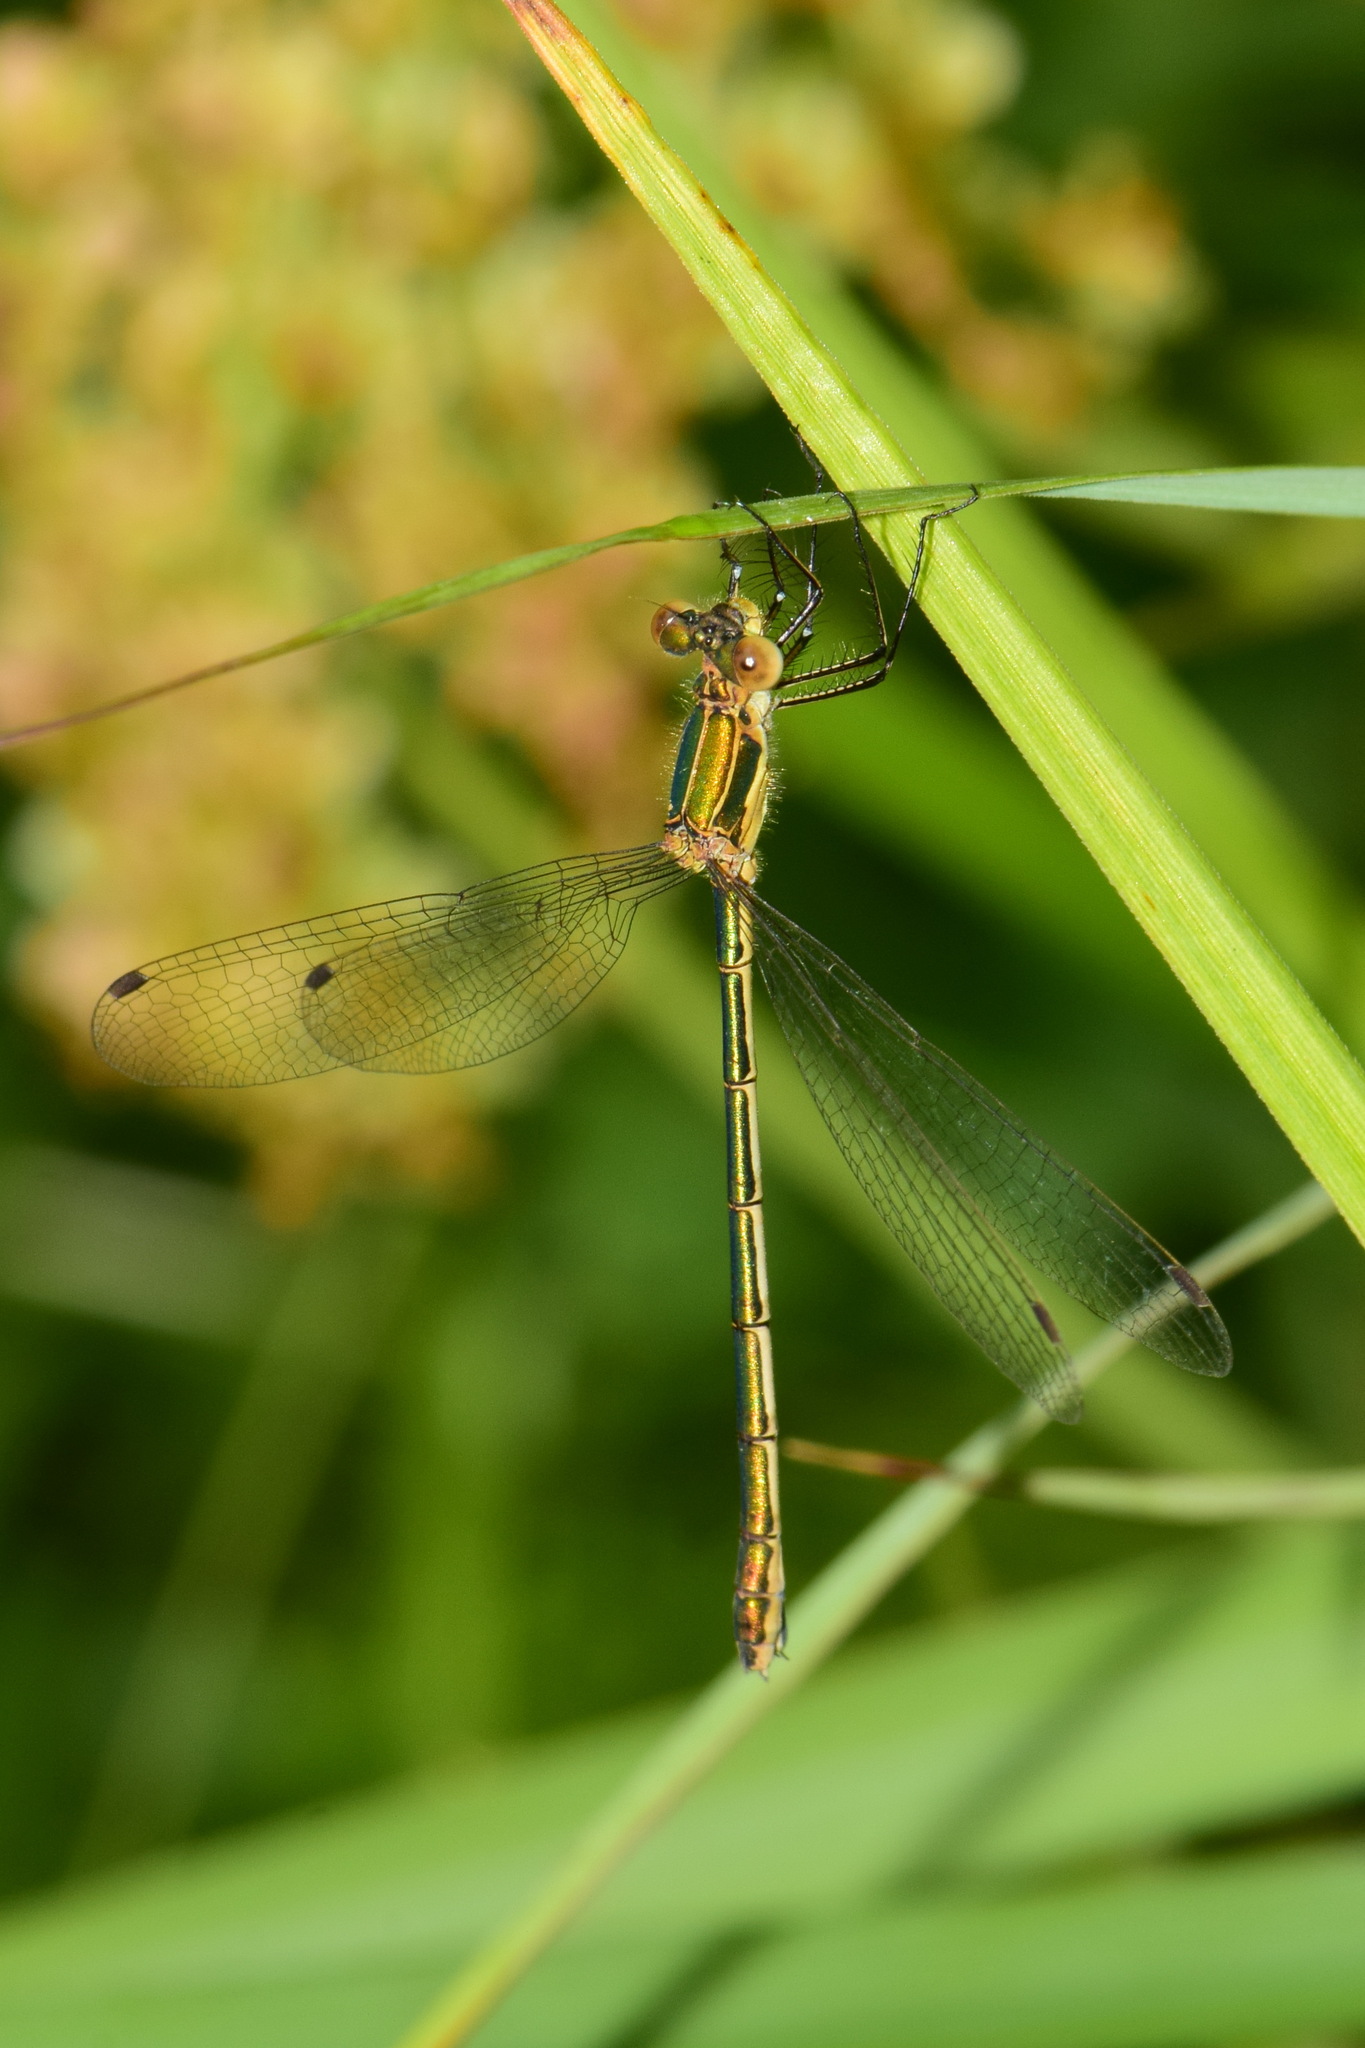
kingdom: Animalia
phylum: Arthropoda
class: Insecta
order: Odonata
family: Lestidae
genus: Lestes
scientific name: Lestes sponsa
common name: Common spreadwing
